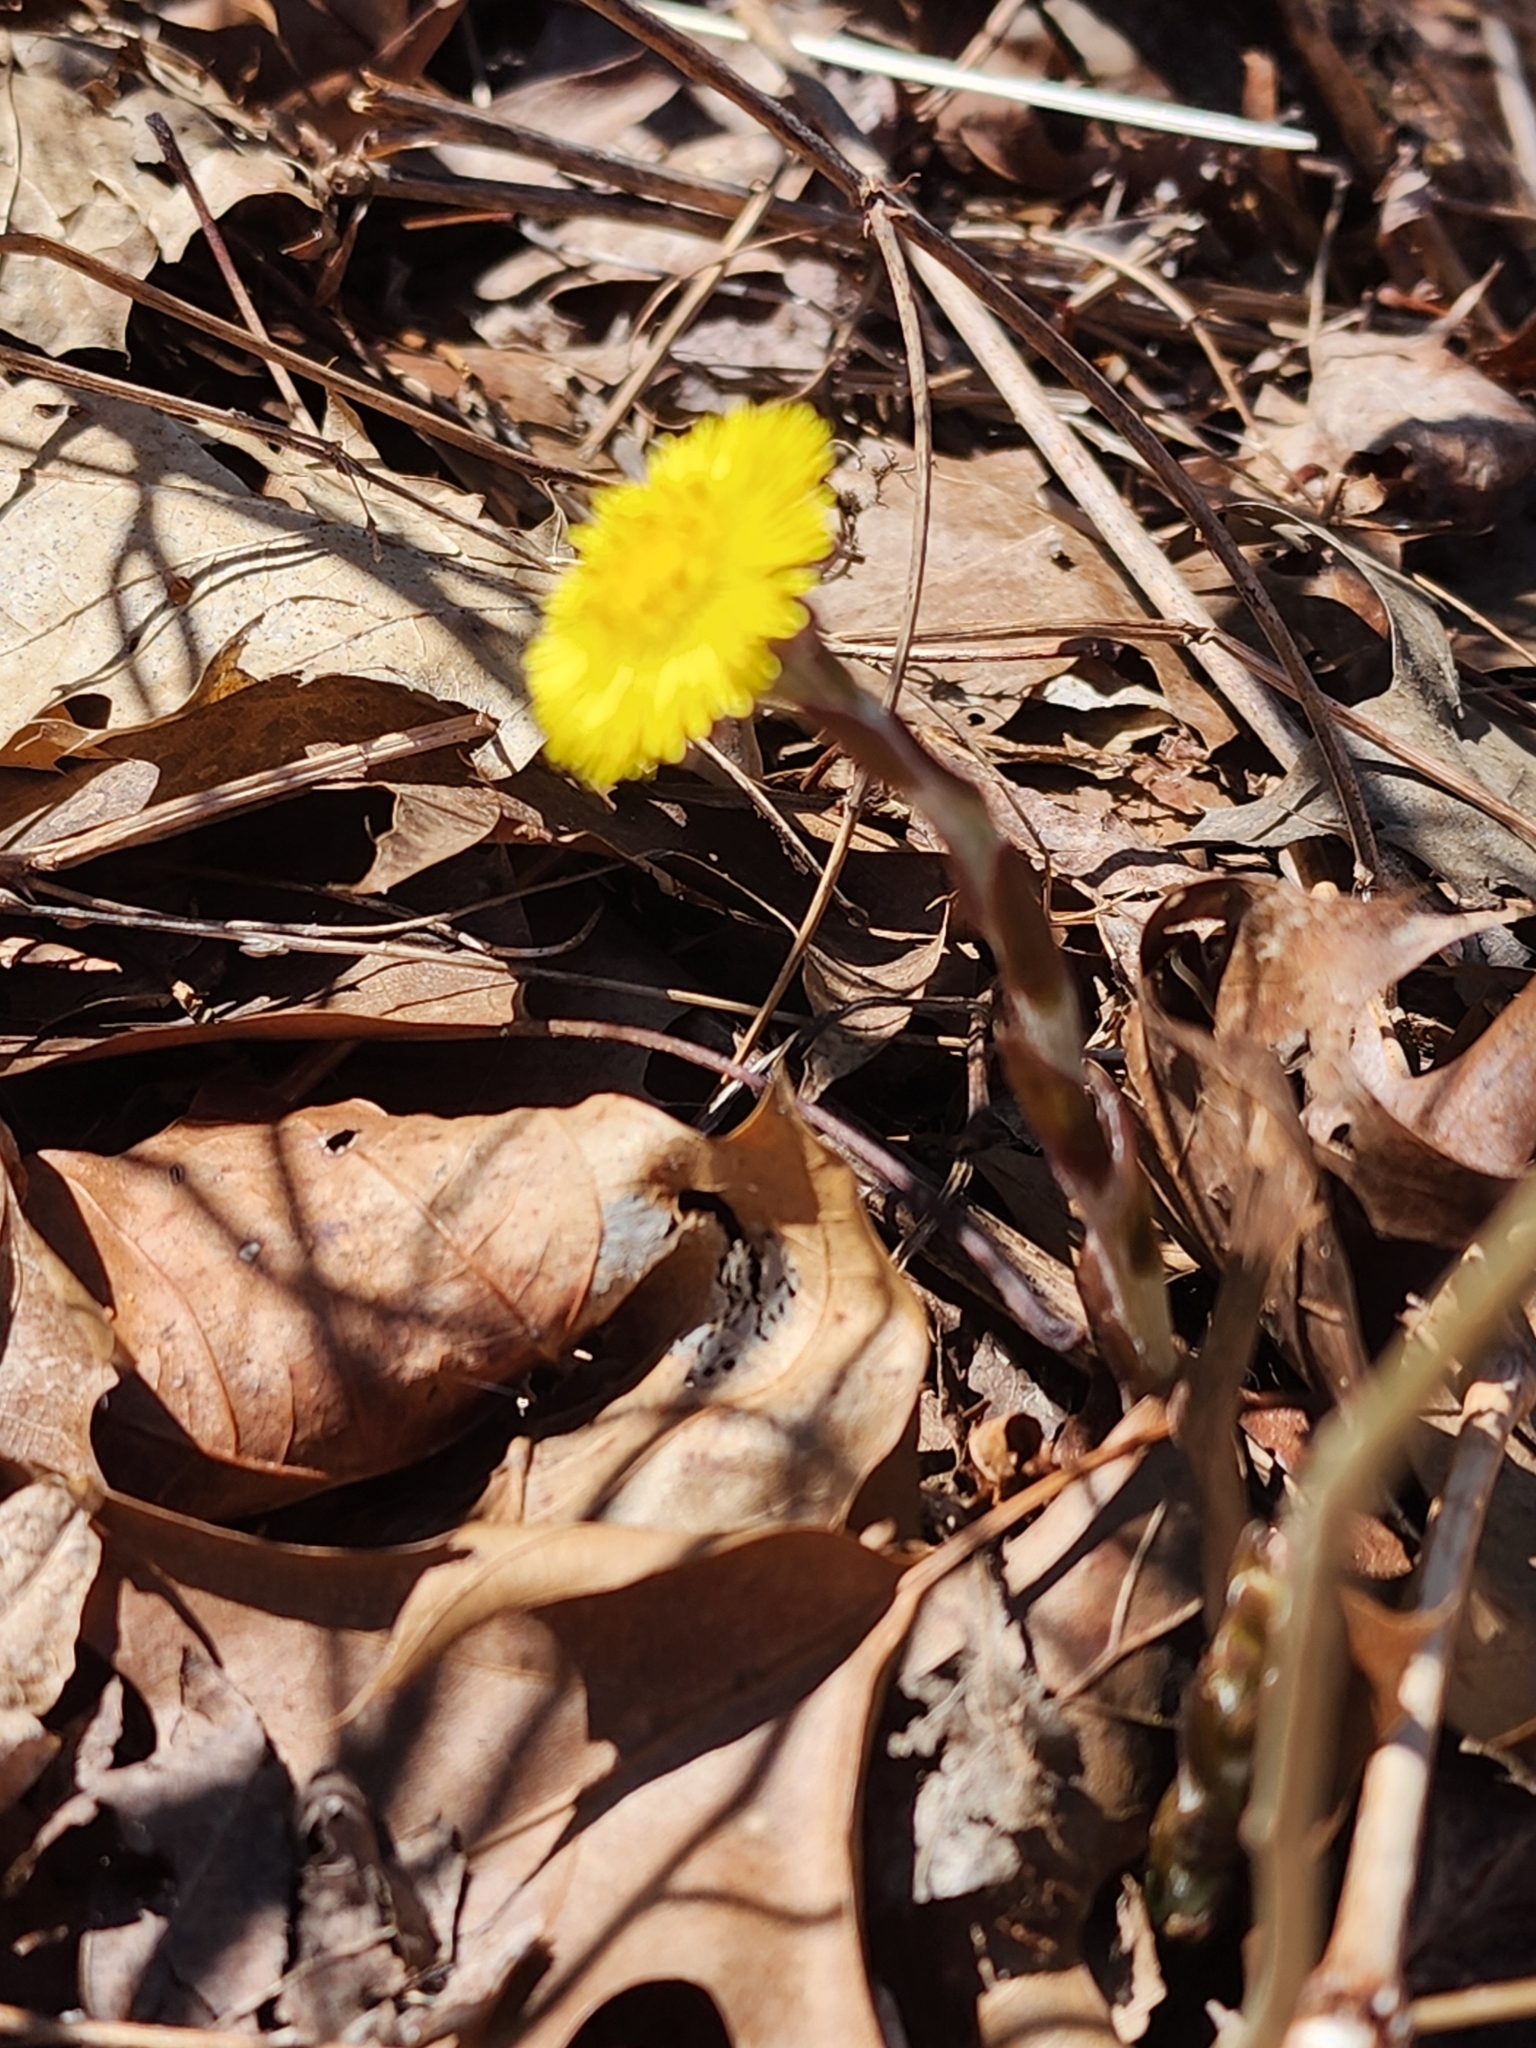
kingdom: Plantae
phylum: Tracheophyta
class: Magnoliopsida
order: Asterales
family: Asteraceae
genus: Tussilago
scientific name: Tussilago farfara
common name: Coltsfoot
